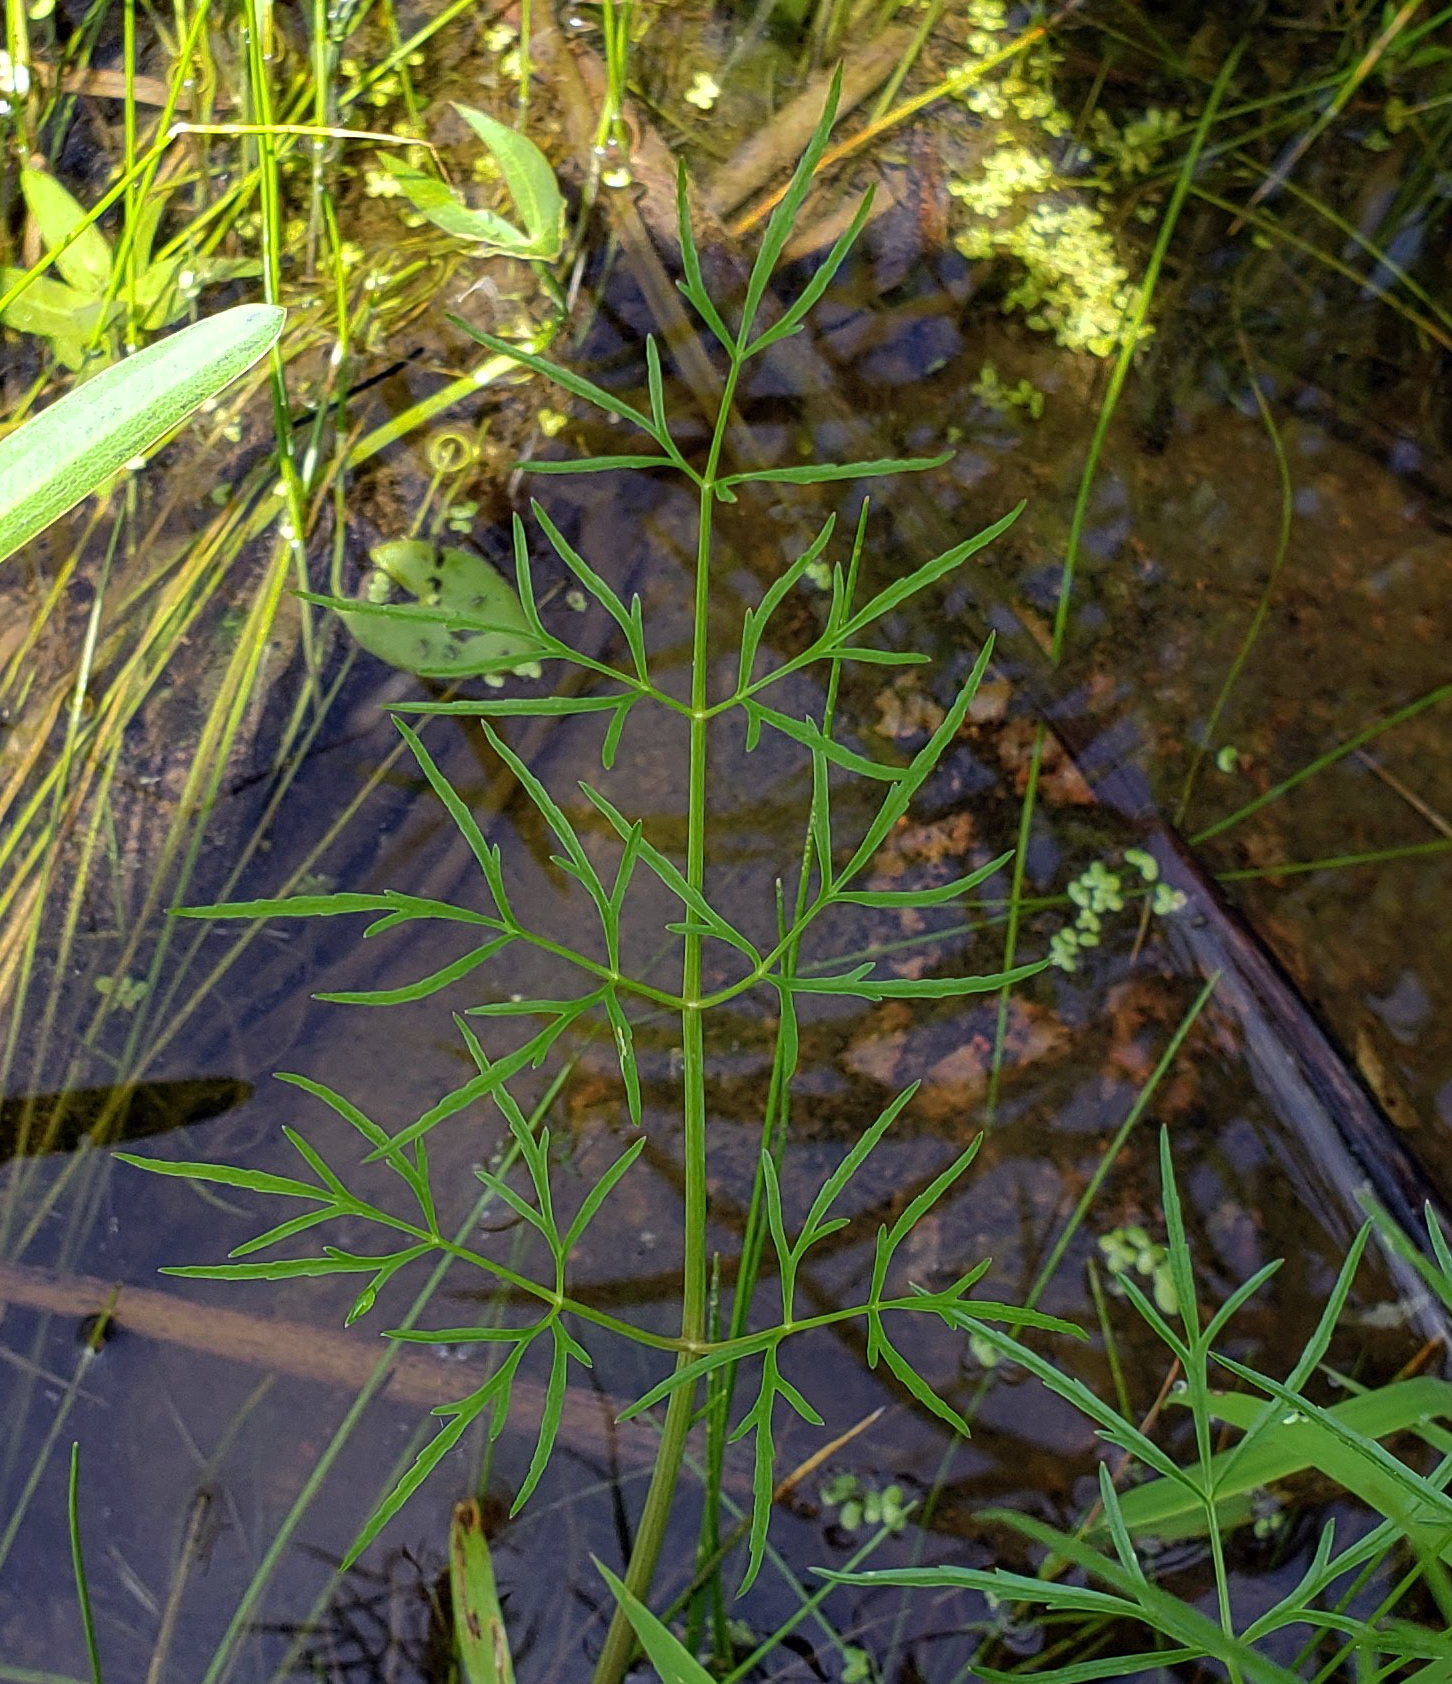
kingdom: Plantae
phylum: Tracheophyta
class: Magnoliopsida
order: Apiales
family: Apiaceae
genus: Cicuta
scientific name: Cicuta bulbifera
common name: Bulb-bearing water-hemlock
